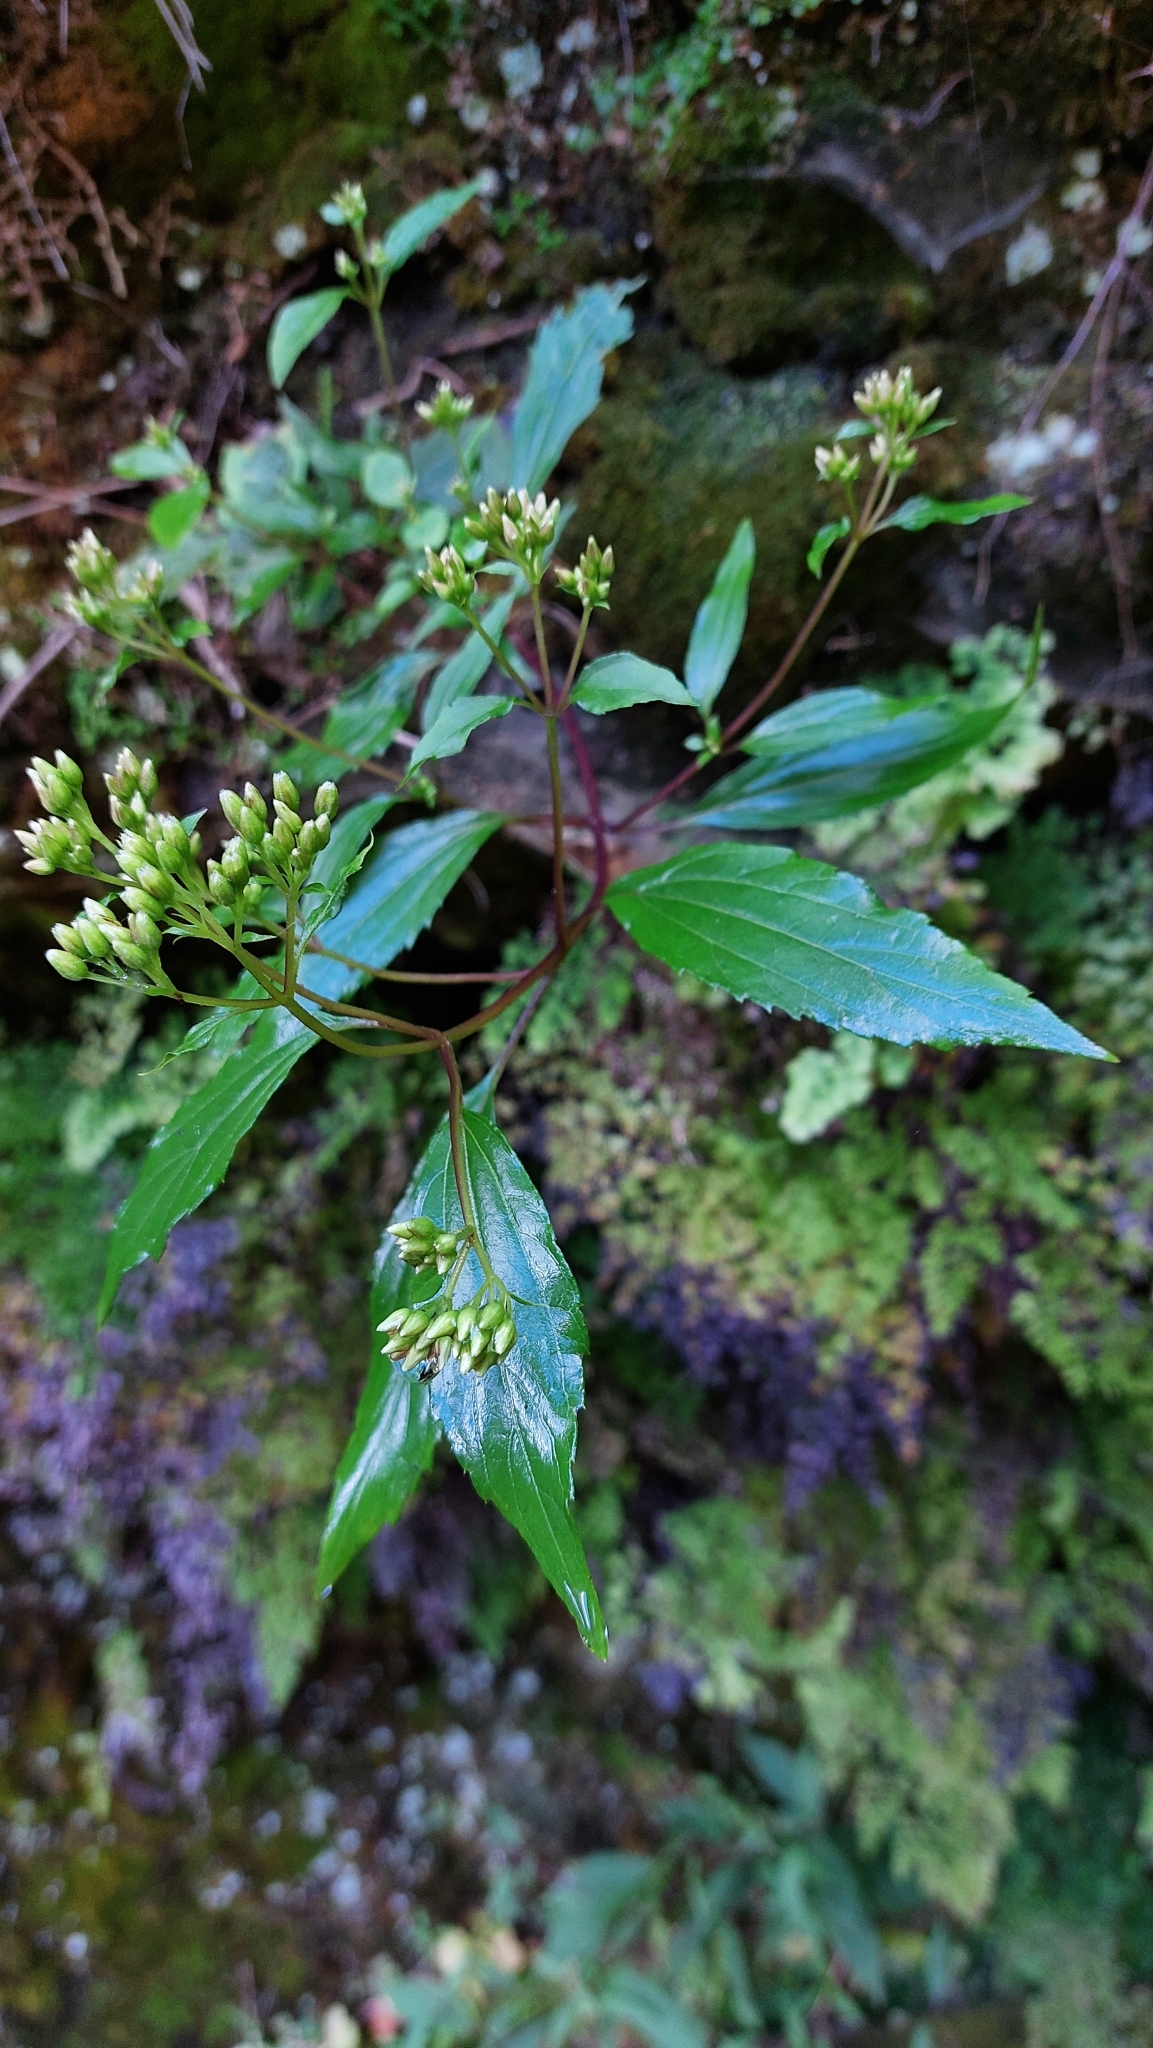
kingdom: Plantae
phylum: Tracheophyta
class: Magnoliopsida
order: Asterales
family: Asteraceae
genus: Ageratina
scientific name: Ageratina riparia
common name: Creeping croftonweed
